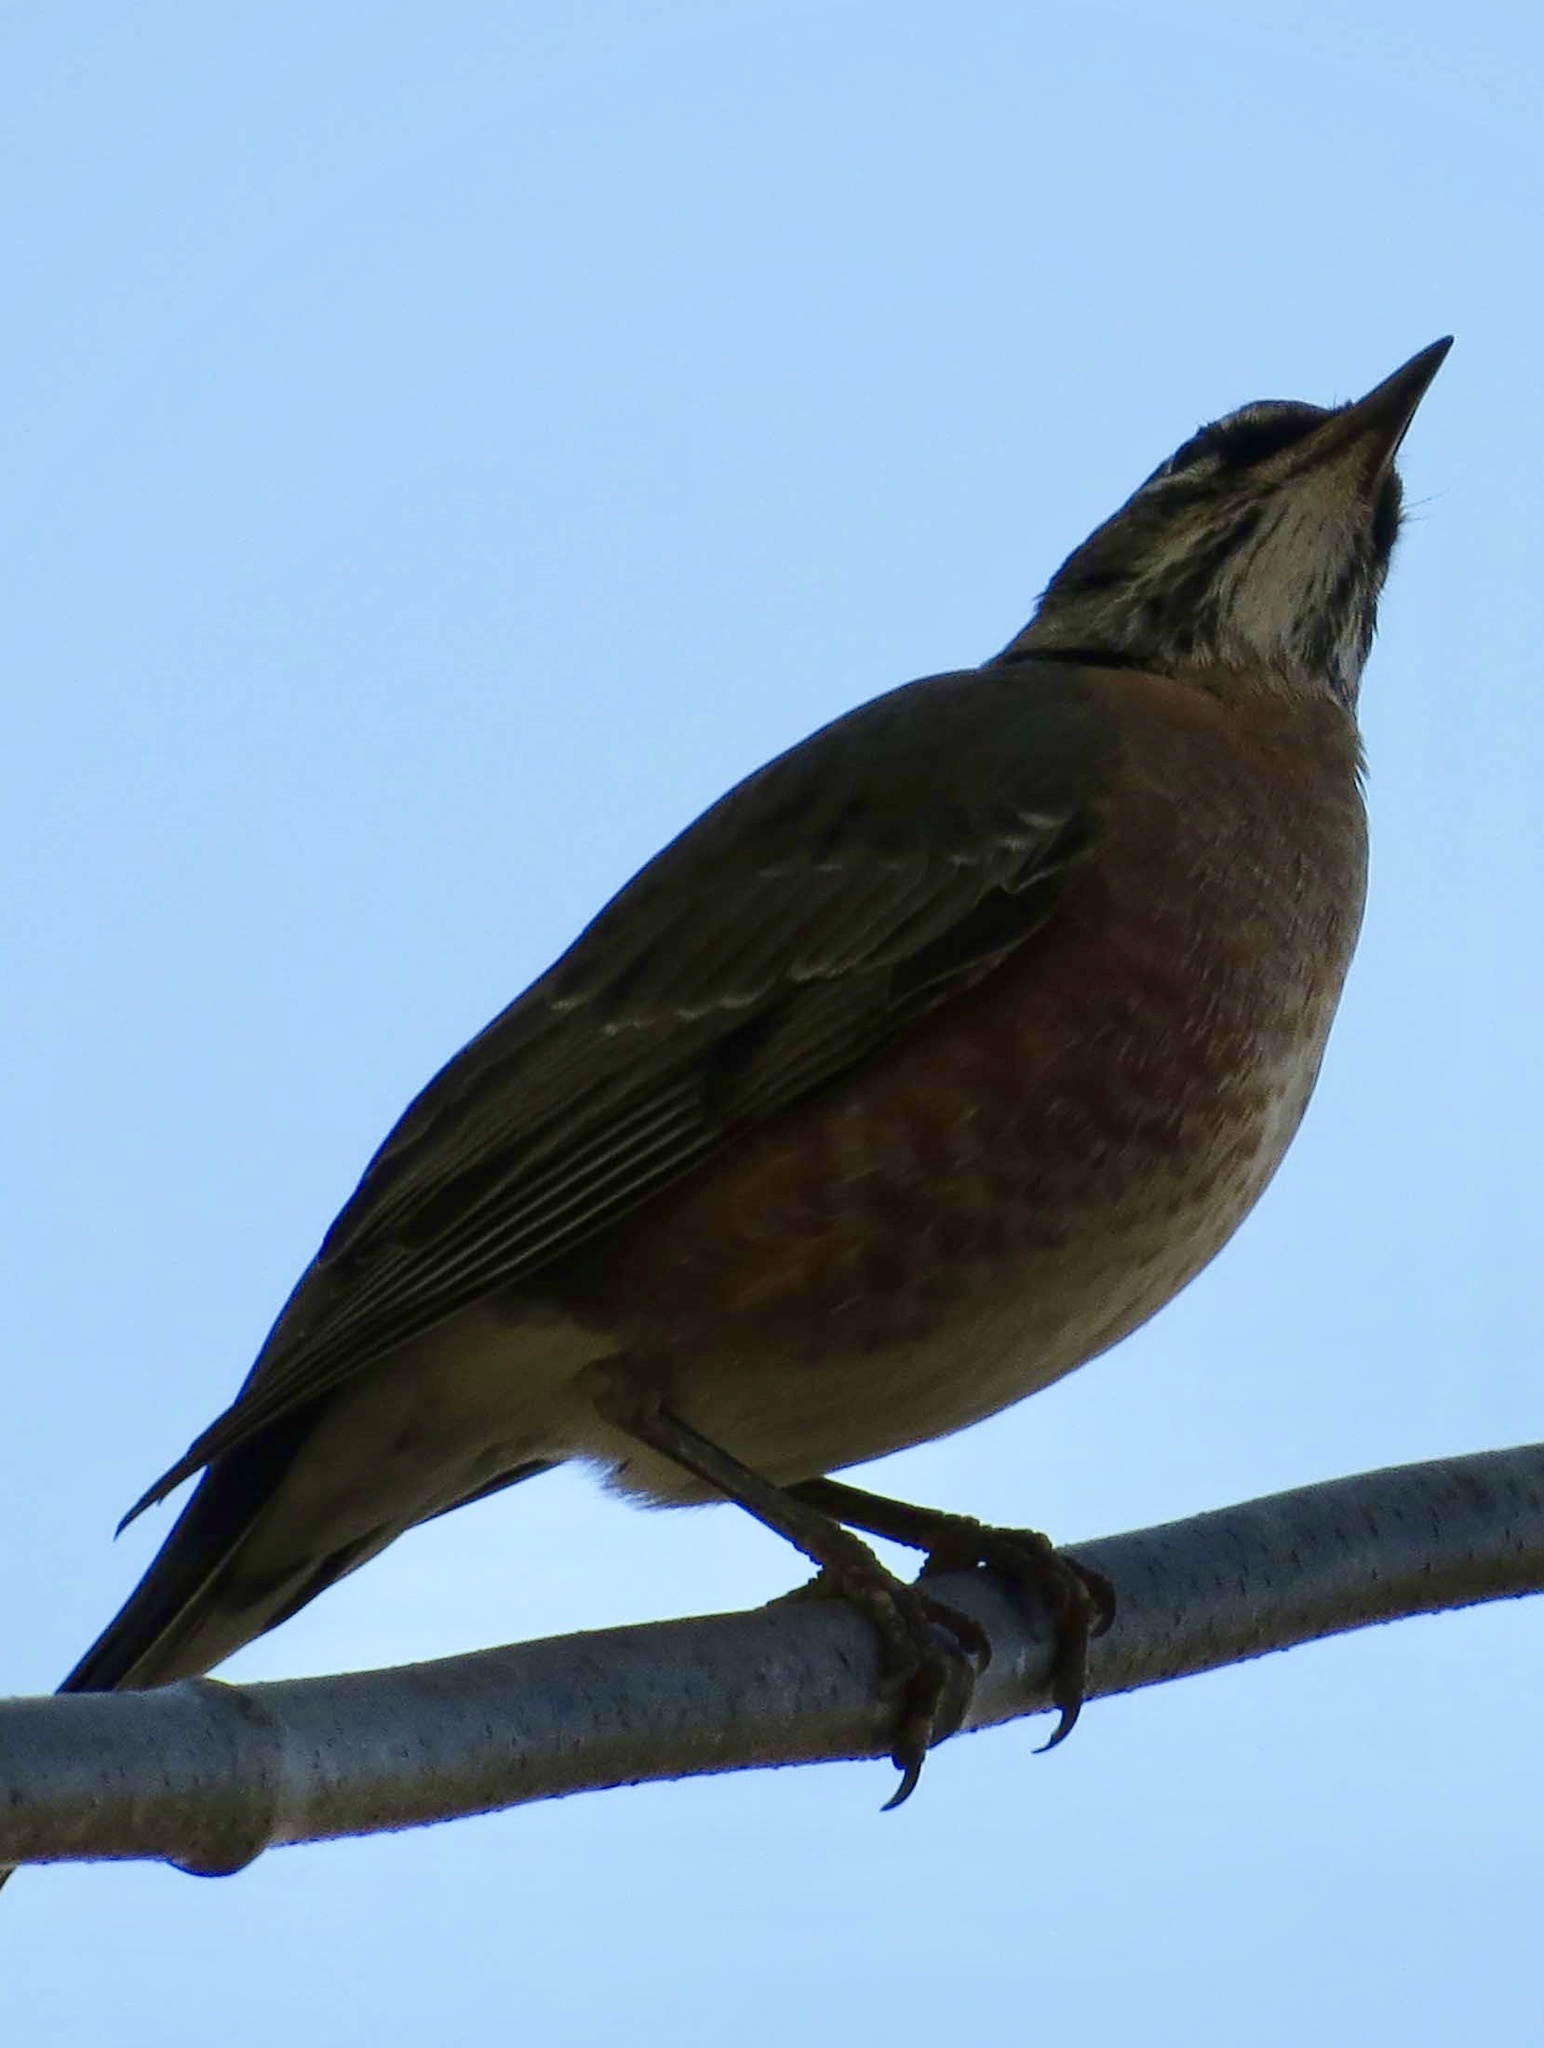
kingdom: Animalia
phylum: Chordata
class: Aves
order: Passeriformes
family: Turdidae
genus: Turdus
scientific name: Turdus migratorius
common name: American robin
